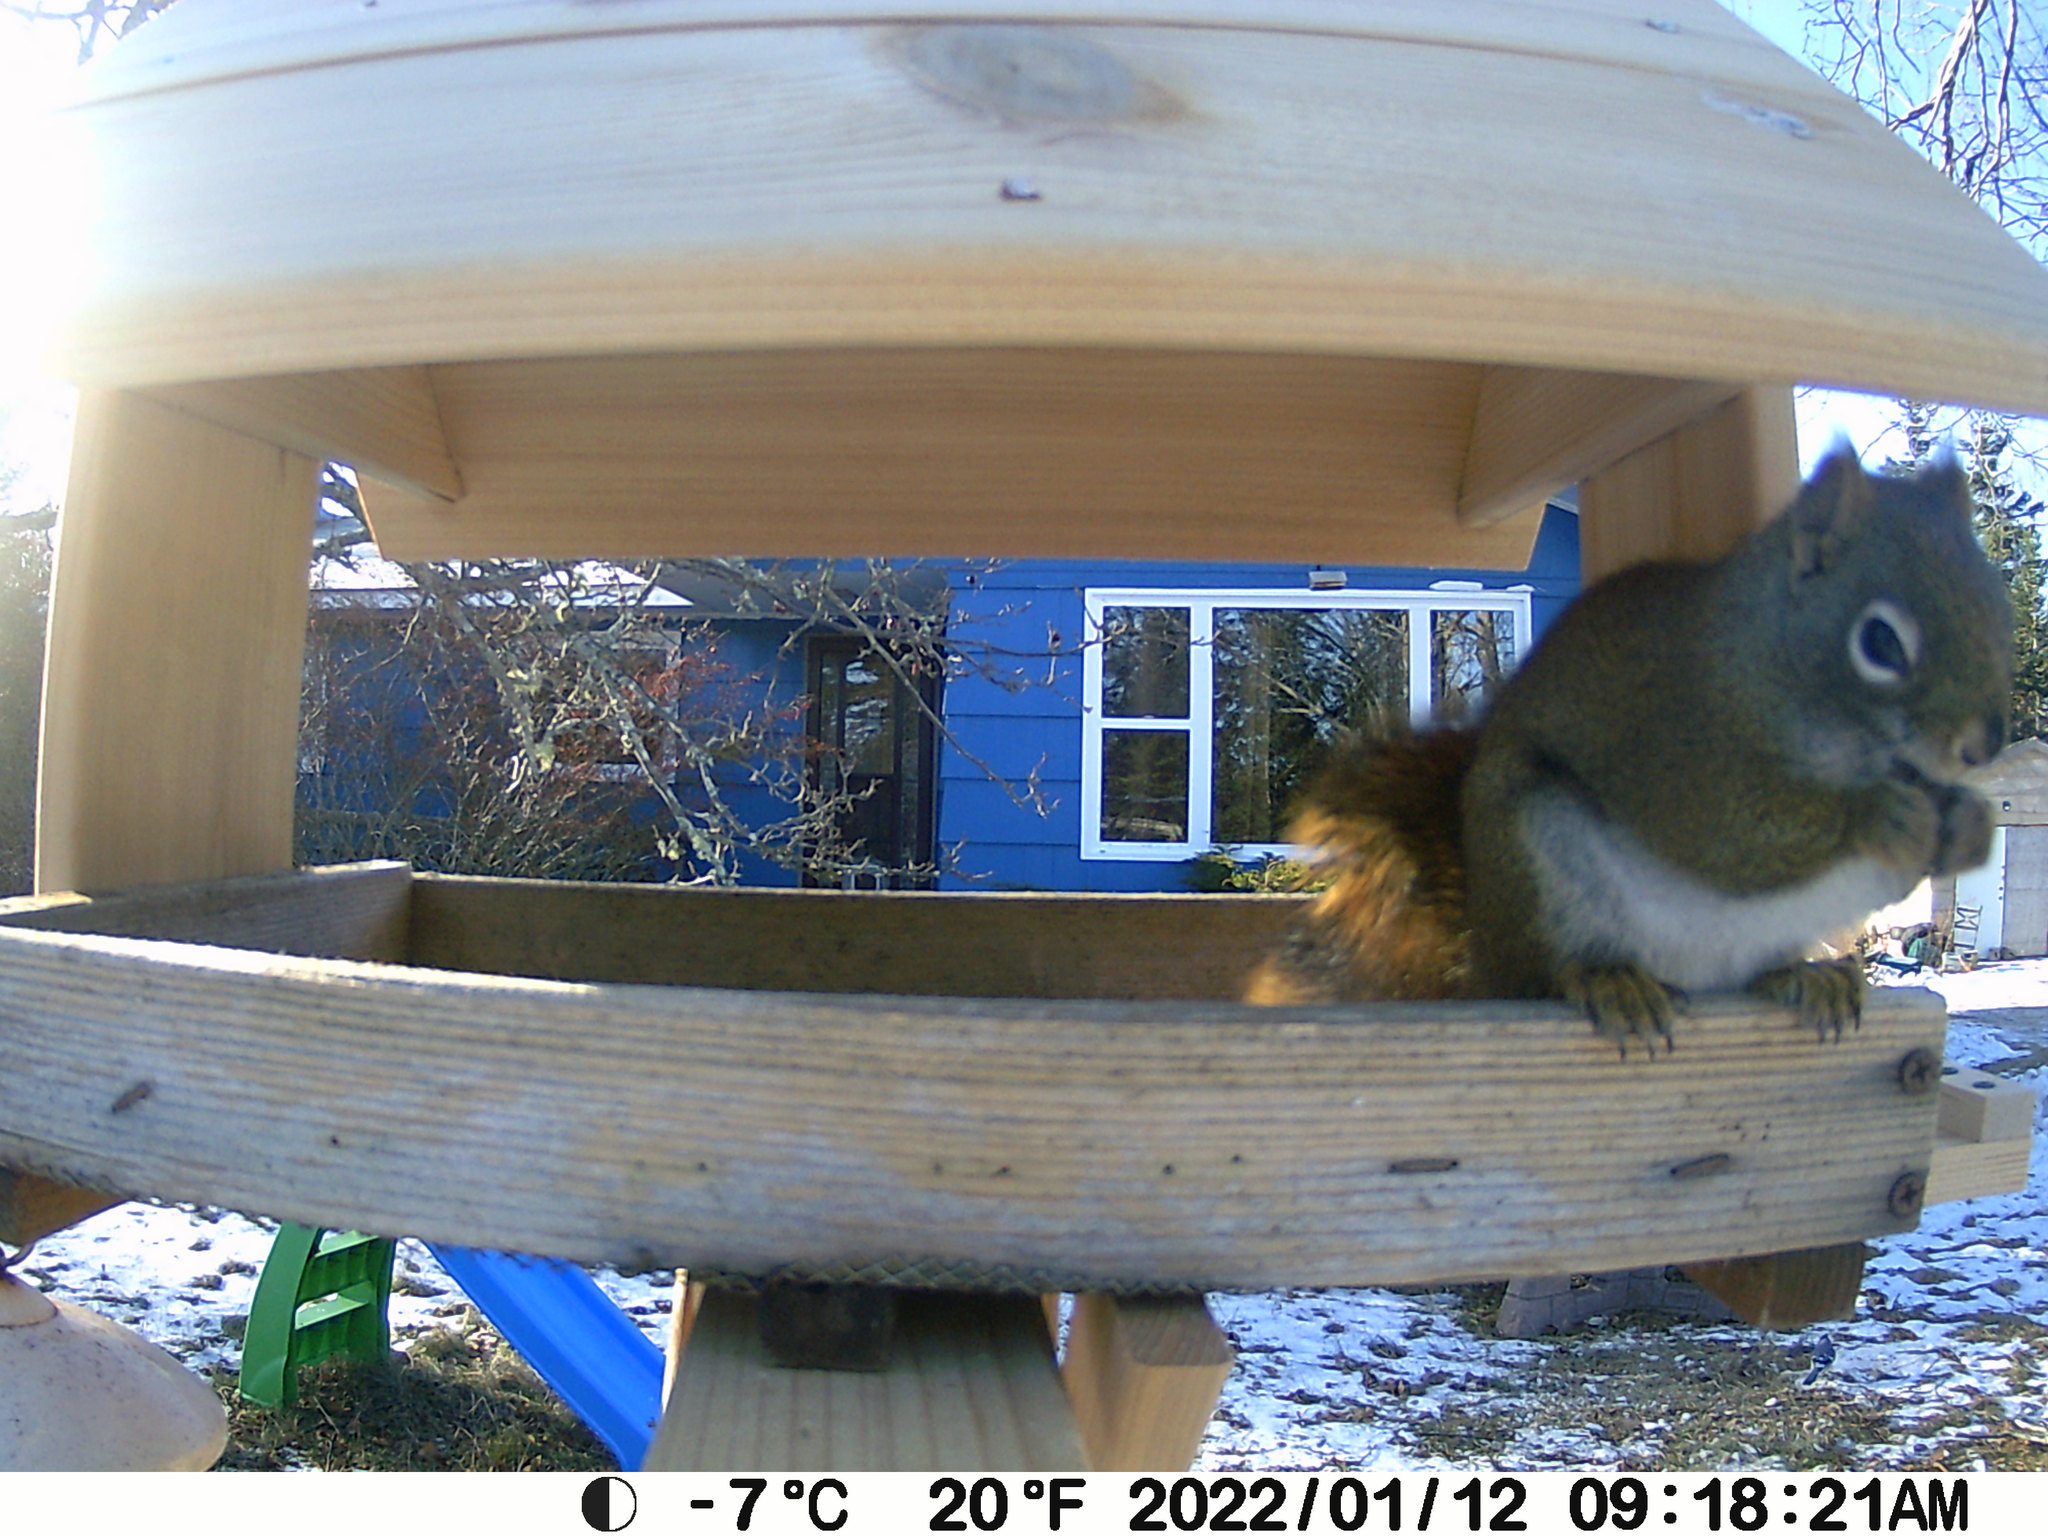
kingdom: Animalia
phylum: Chordata
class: Mammalia
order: Rodentia
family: Sciuridae
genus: Tamiasciurus
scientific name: Tamiasciurus hudsonicus
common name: Red squirrel
